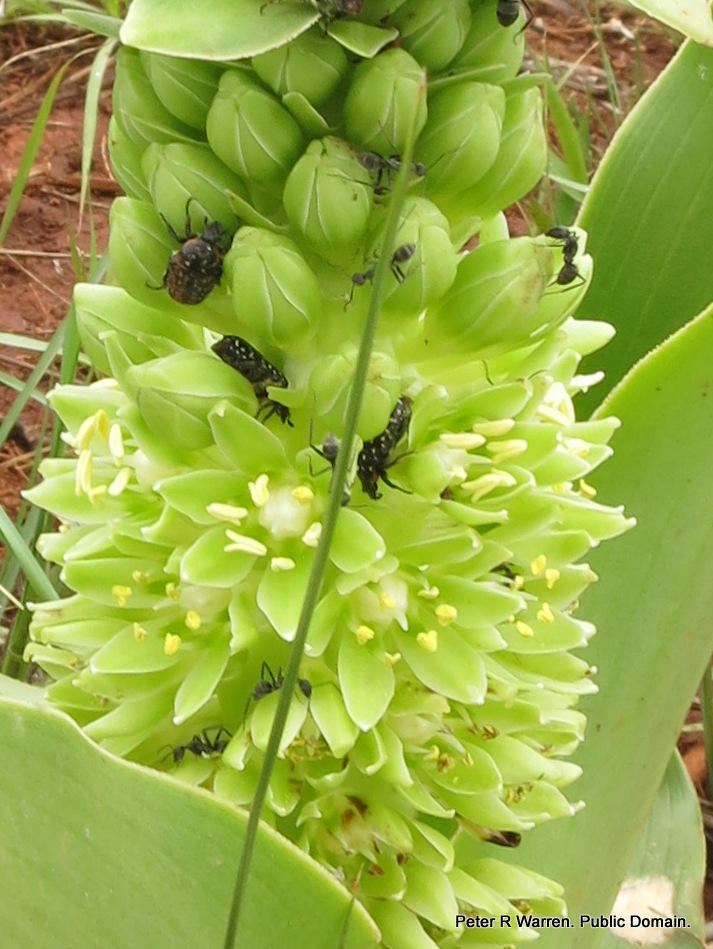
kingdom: Plantae
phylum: Tracheophyta
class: Liliopsida
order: Asparagales
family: Asparagaceae
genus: Eucomis
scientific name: Eucomis humilis
